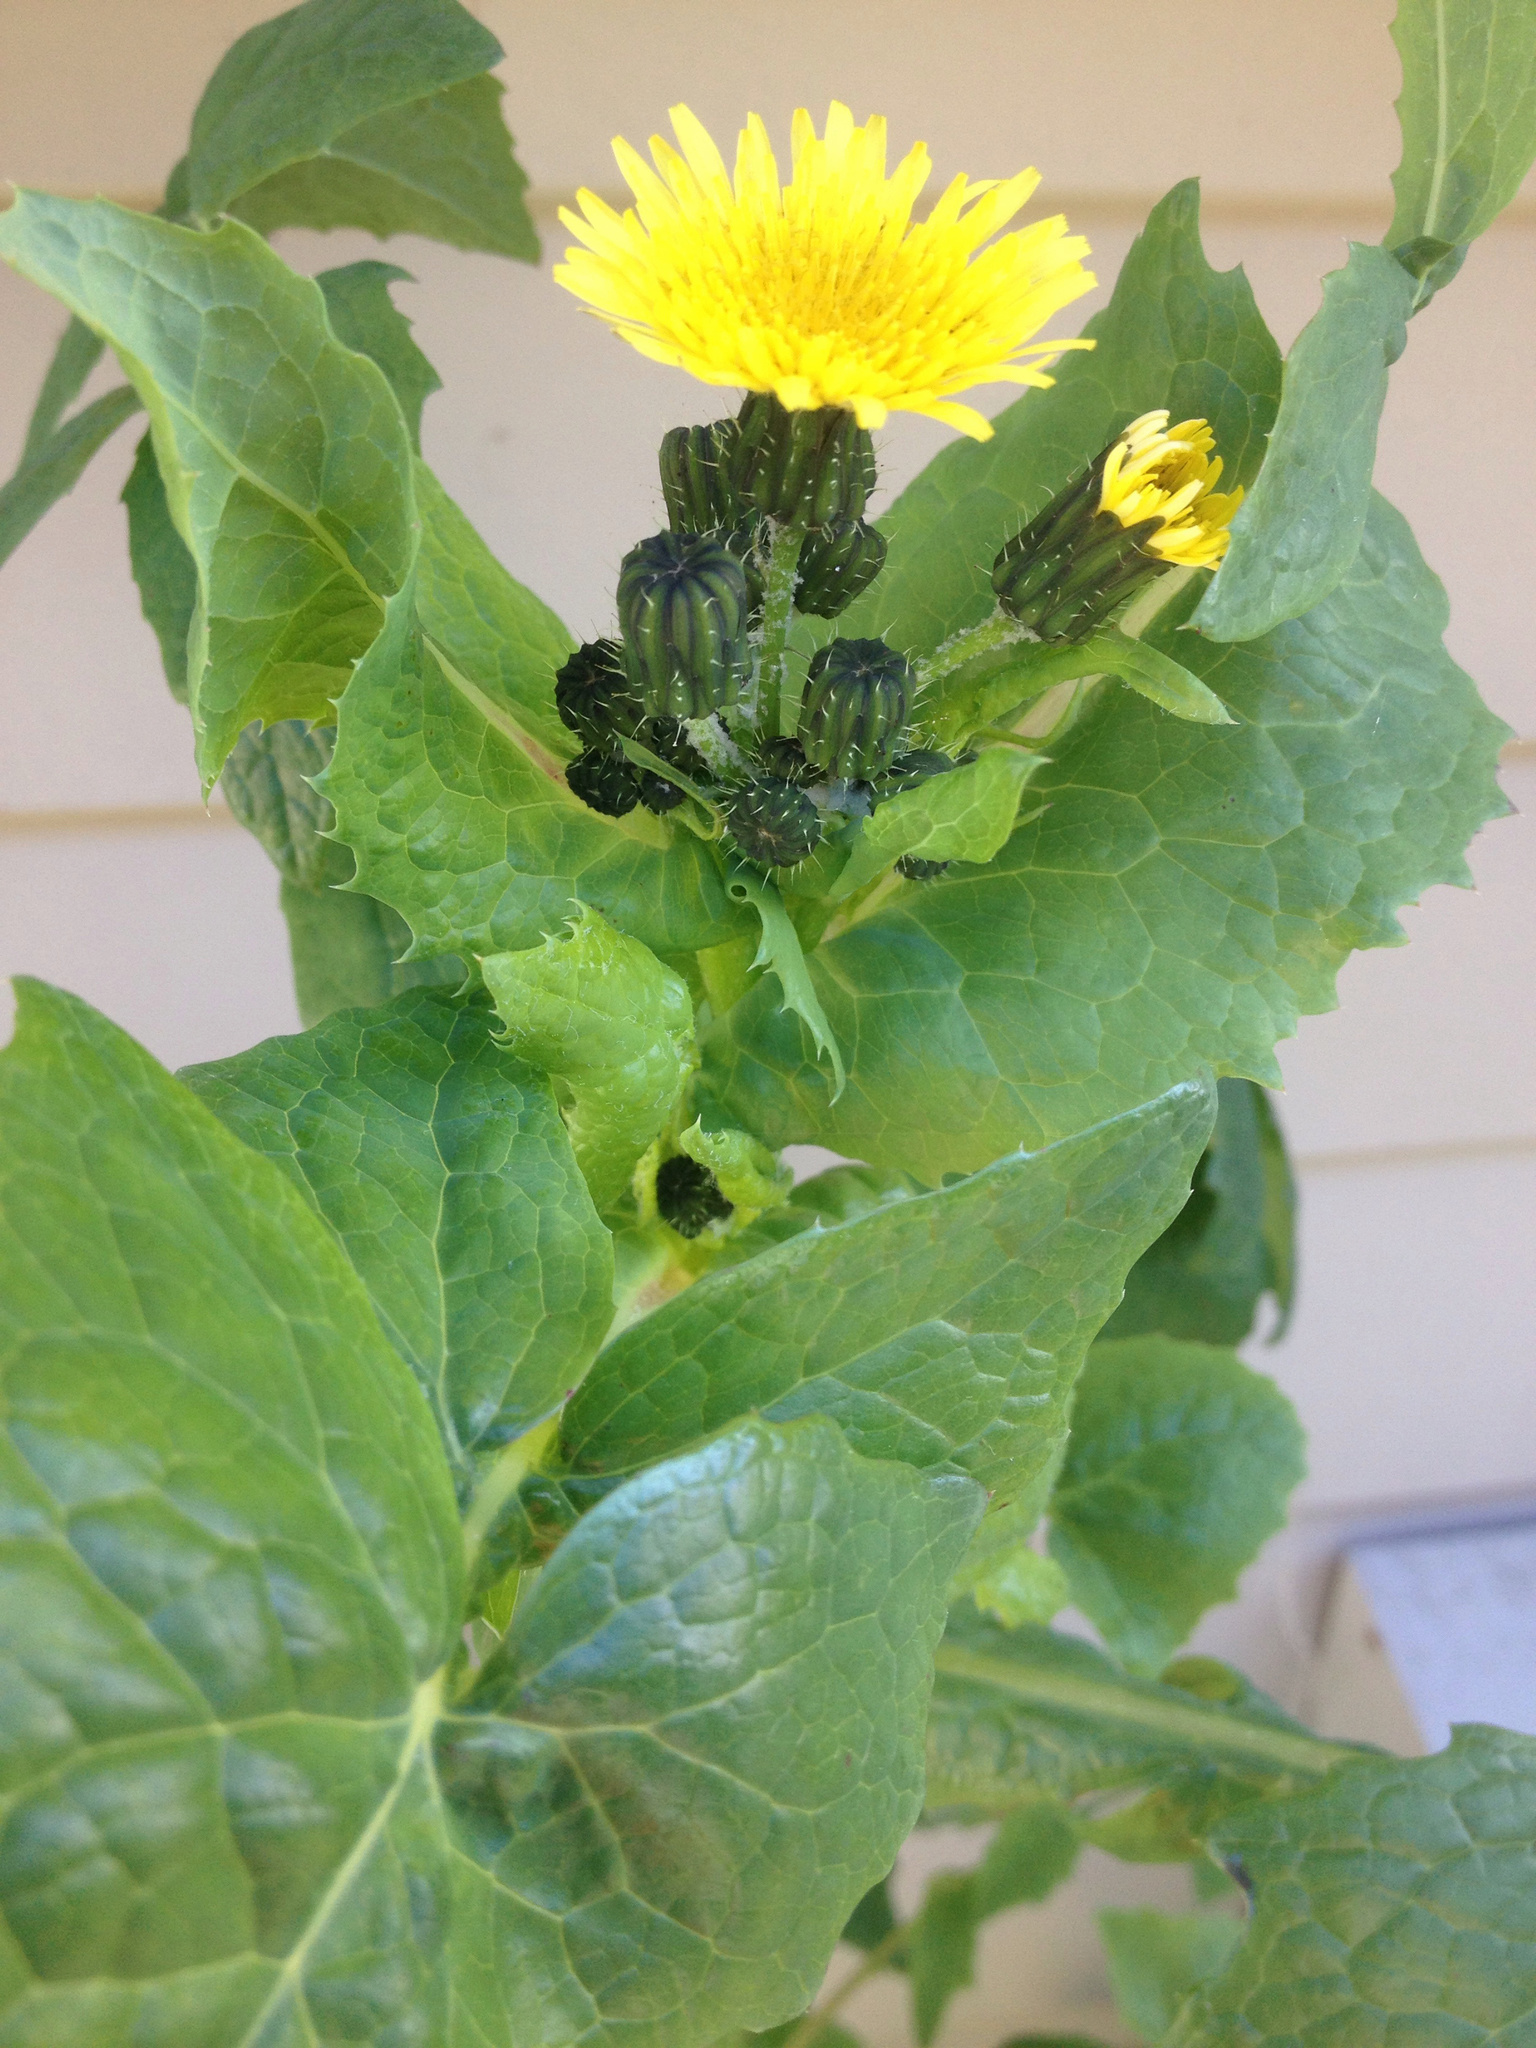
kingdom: Plantae
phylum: Tracheophyta
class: Magnoliopsida
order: Asterales
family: Asteraceae
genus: Sonchus
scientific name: Sonchus oleraceus
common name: Common sowthistle
